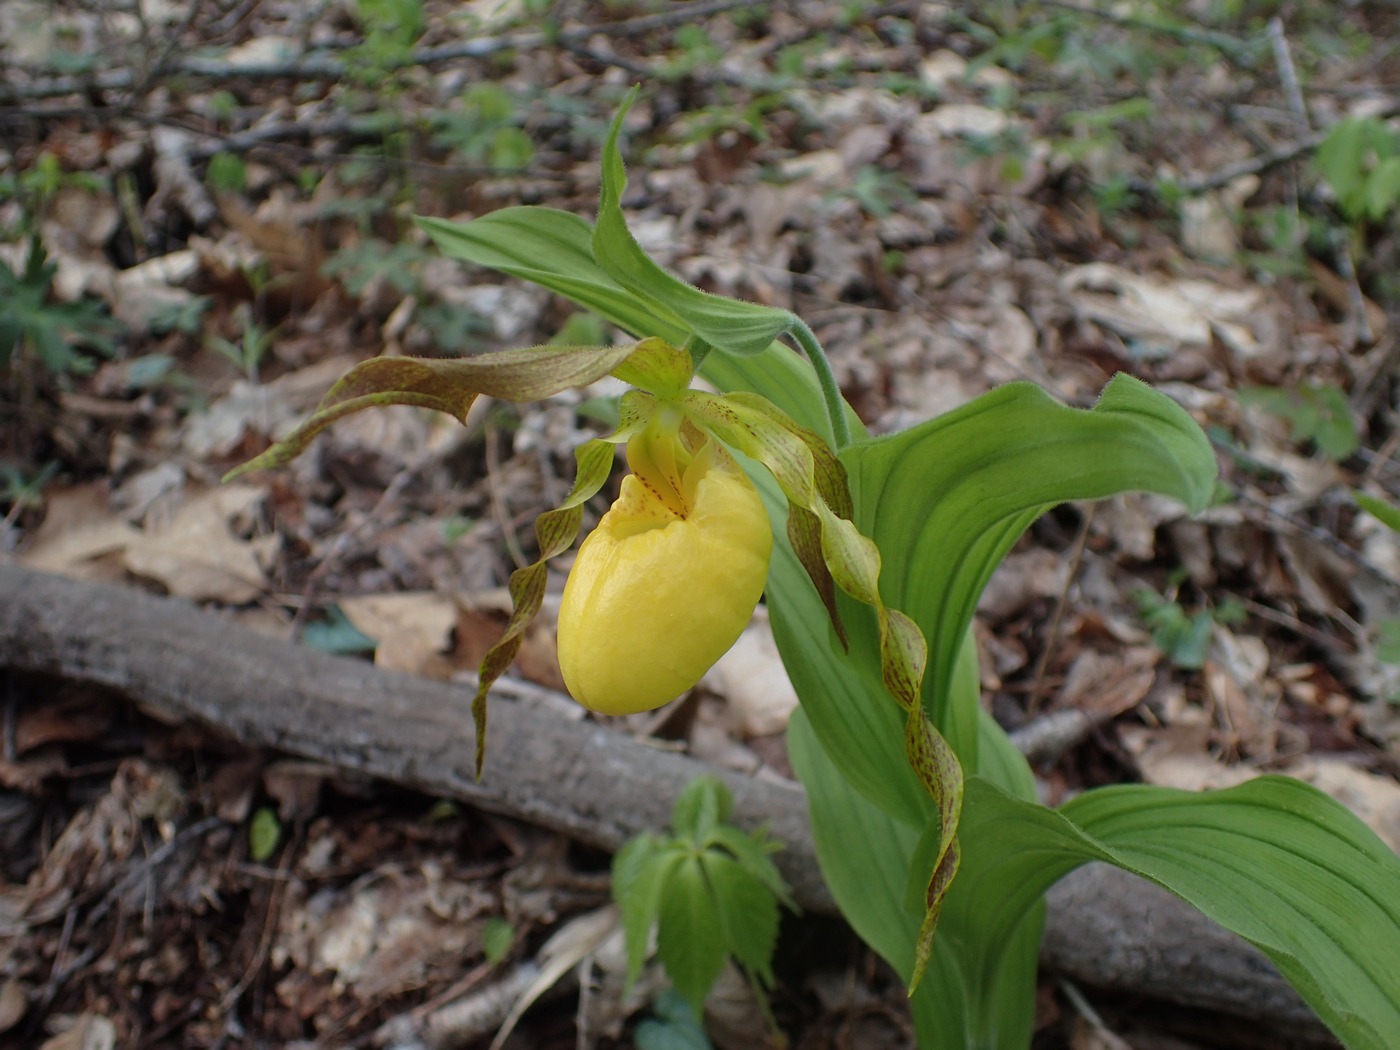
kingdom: Plantae
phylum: Tracheophyta
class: Liliopsida
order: Asparagales
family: Orchidaceae
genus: Cypripedium
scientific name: Cypripedium parviflorum
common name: American yellow lady's-slipper
